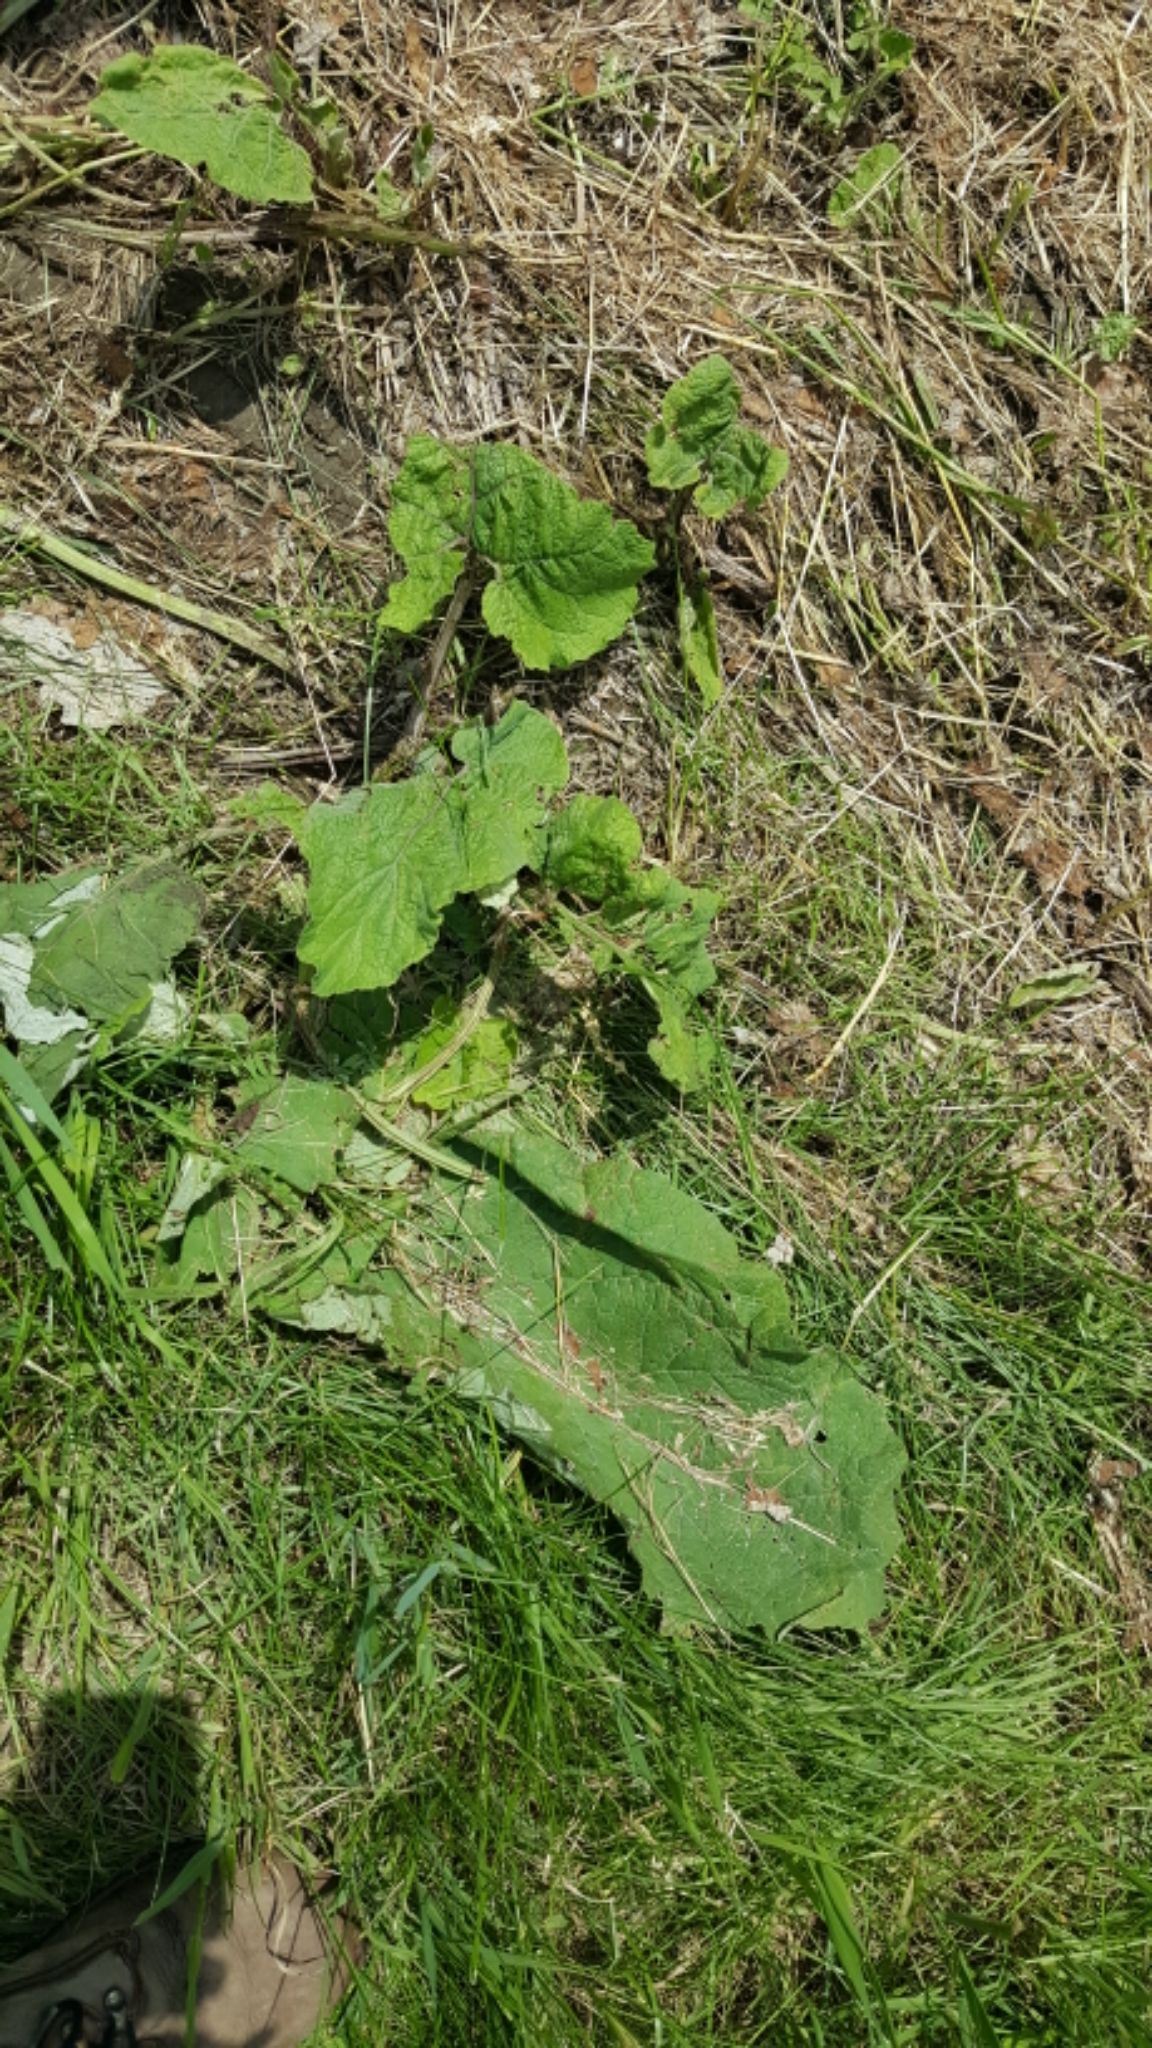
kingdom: Plantae
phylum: Tracheophyta
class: Magnoliopsida
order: Asterales
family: Asteraceae
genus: Arctium
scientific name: Arctium
